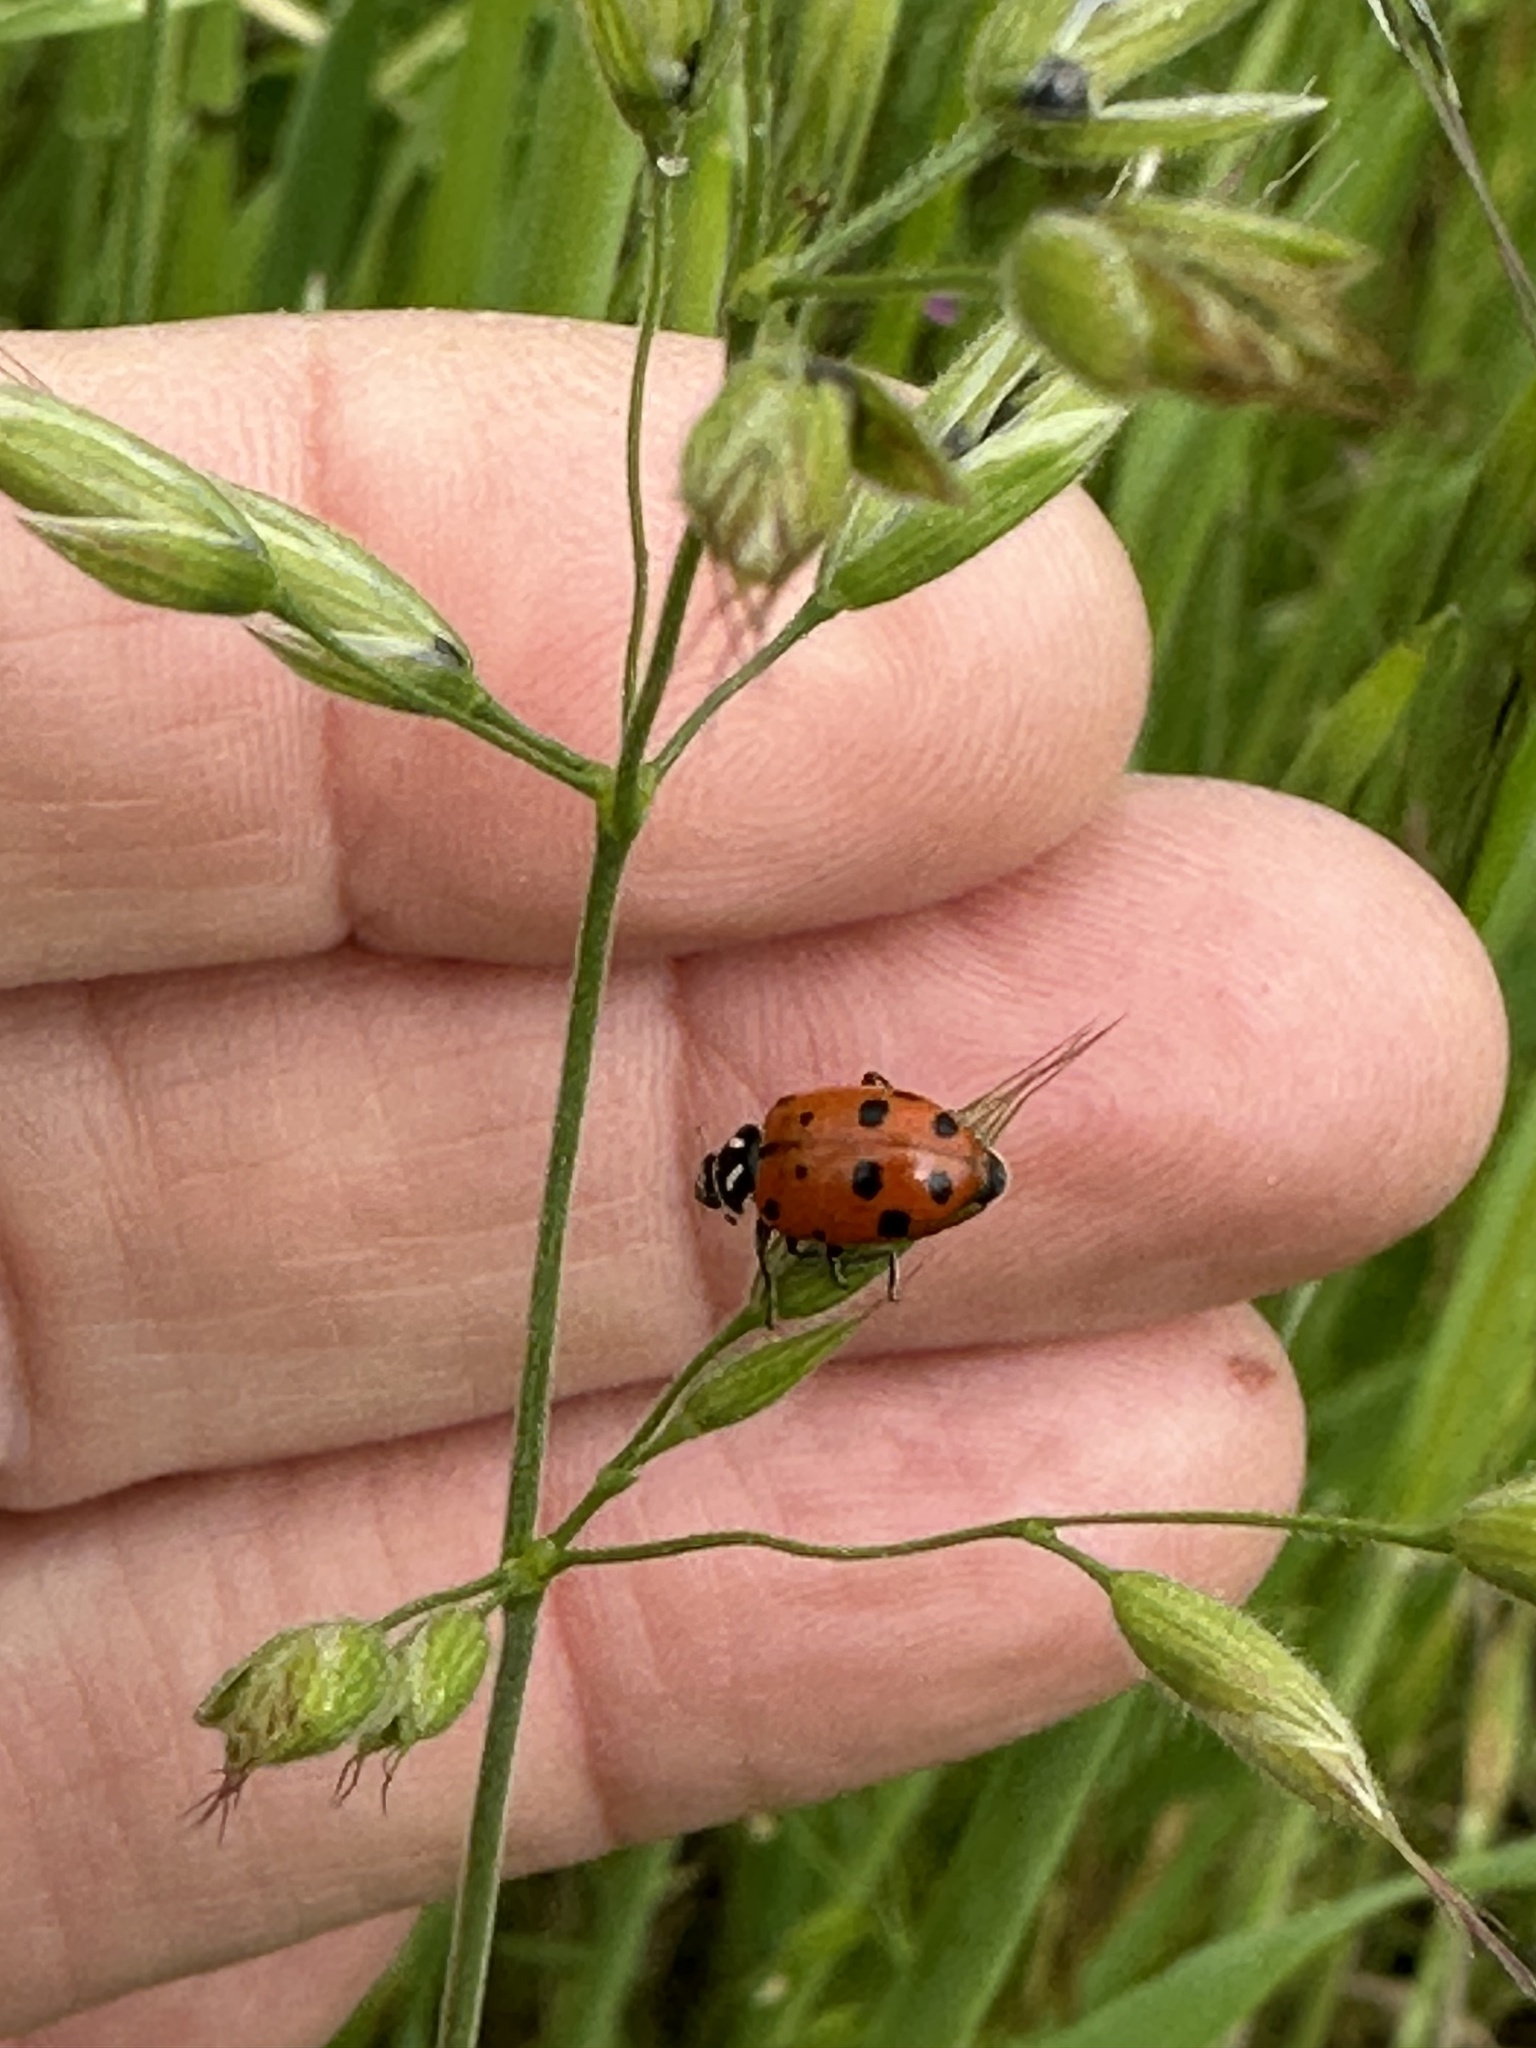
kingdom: Animalia
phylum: Arthropoda
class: Insecta
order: Coleoptera
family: Coccinellidae
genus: Hippodamia
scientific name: Hippodamia convergens
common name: Convergent lady beetle
